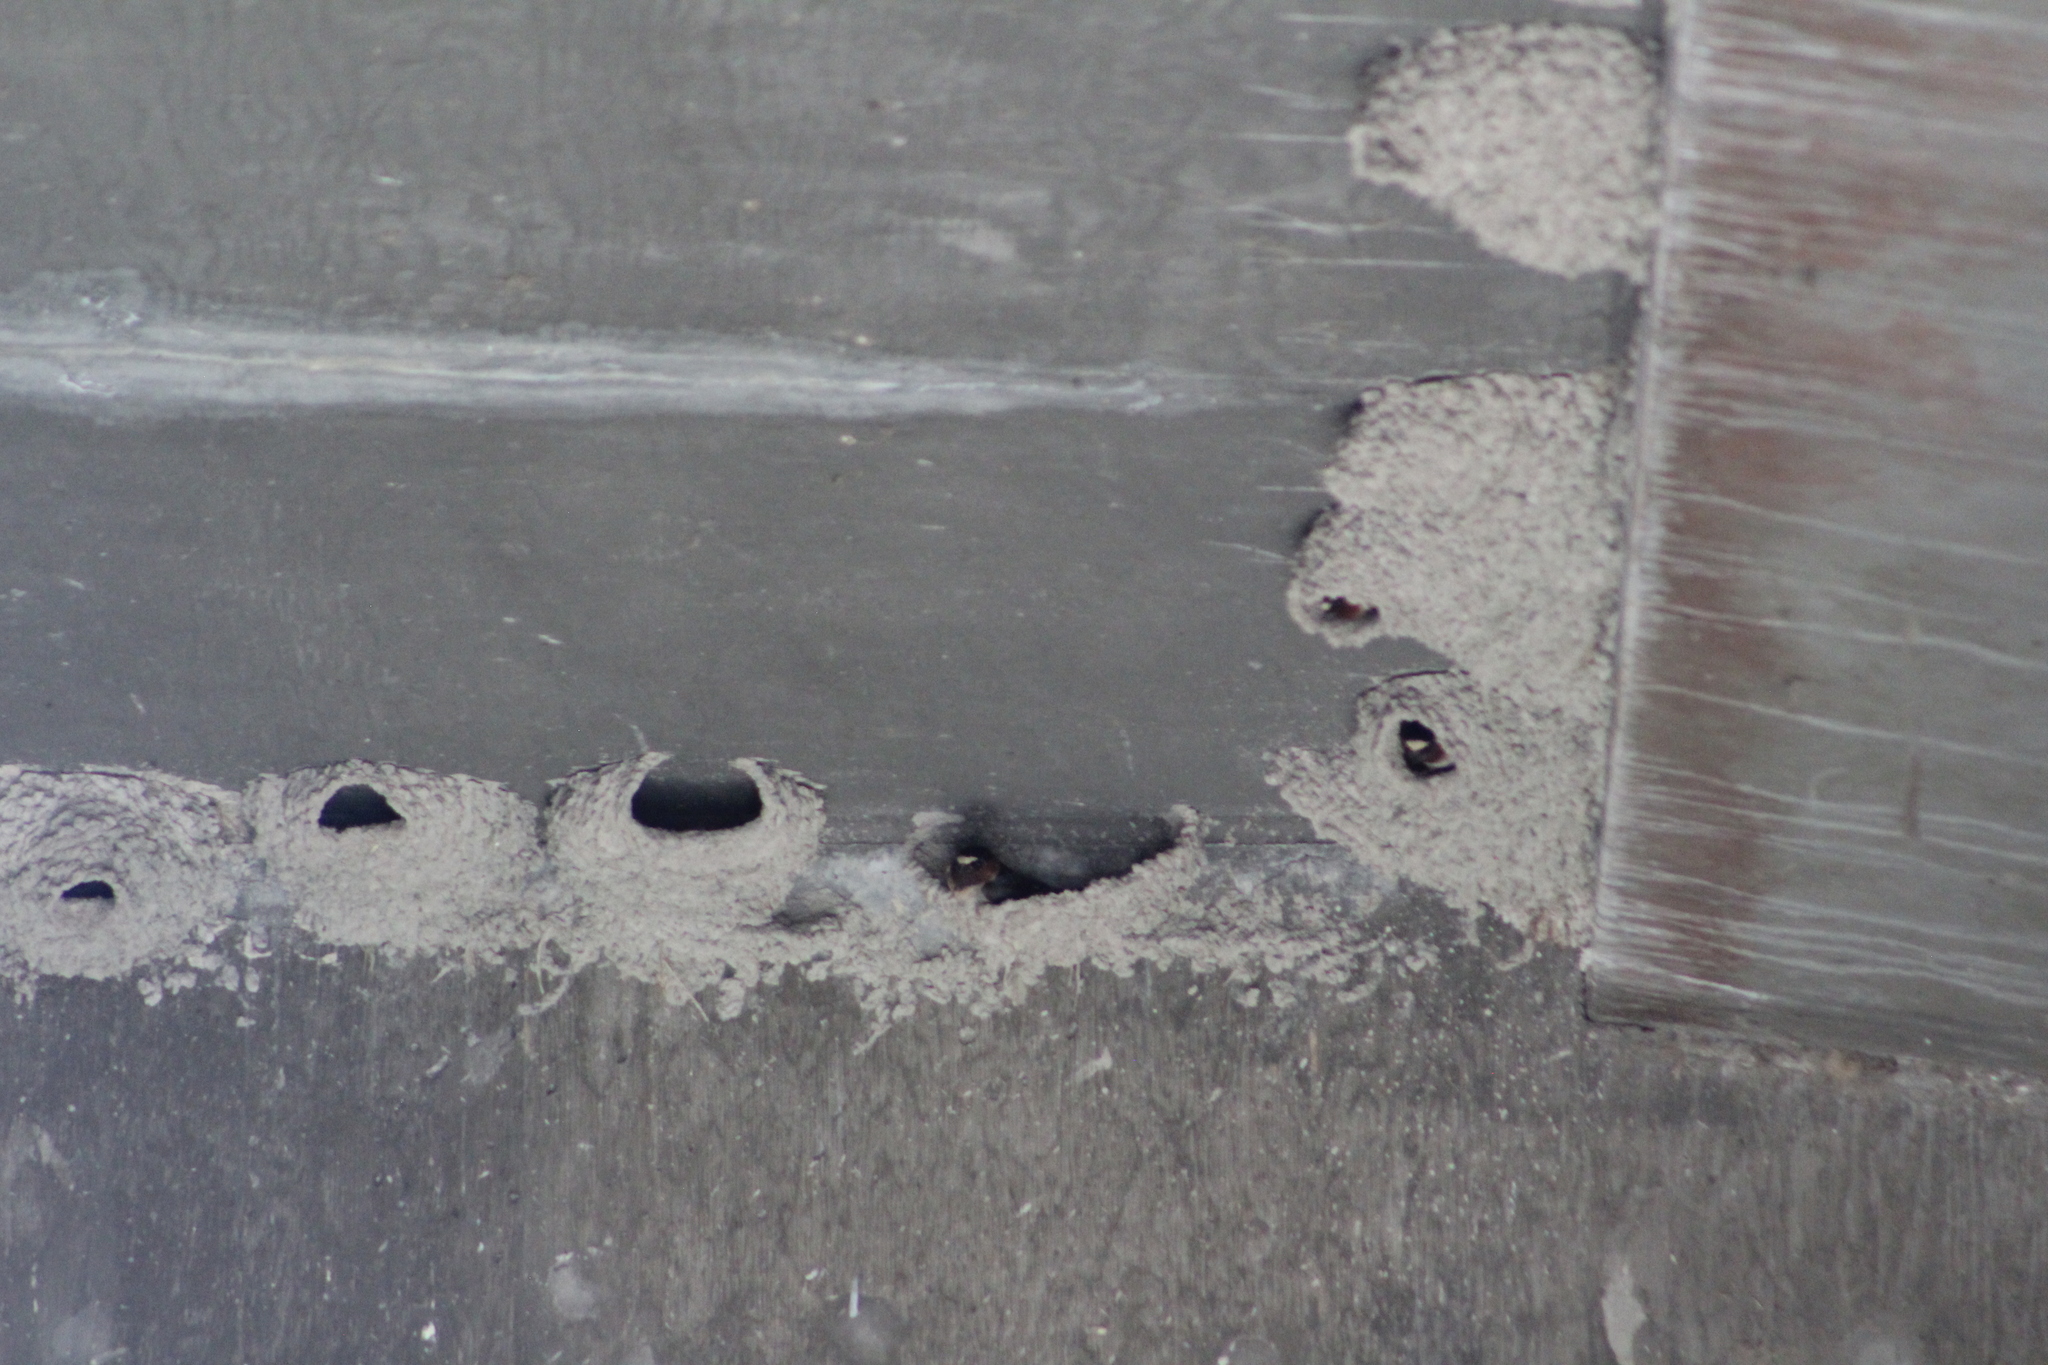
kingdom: Animalia
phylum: Chordata
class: Aves
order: Passeriformes
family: Hirundinidae
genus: Petrochelidon
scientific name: Petrochelidon pyrrhonota
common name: American cliff swallow
